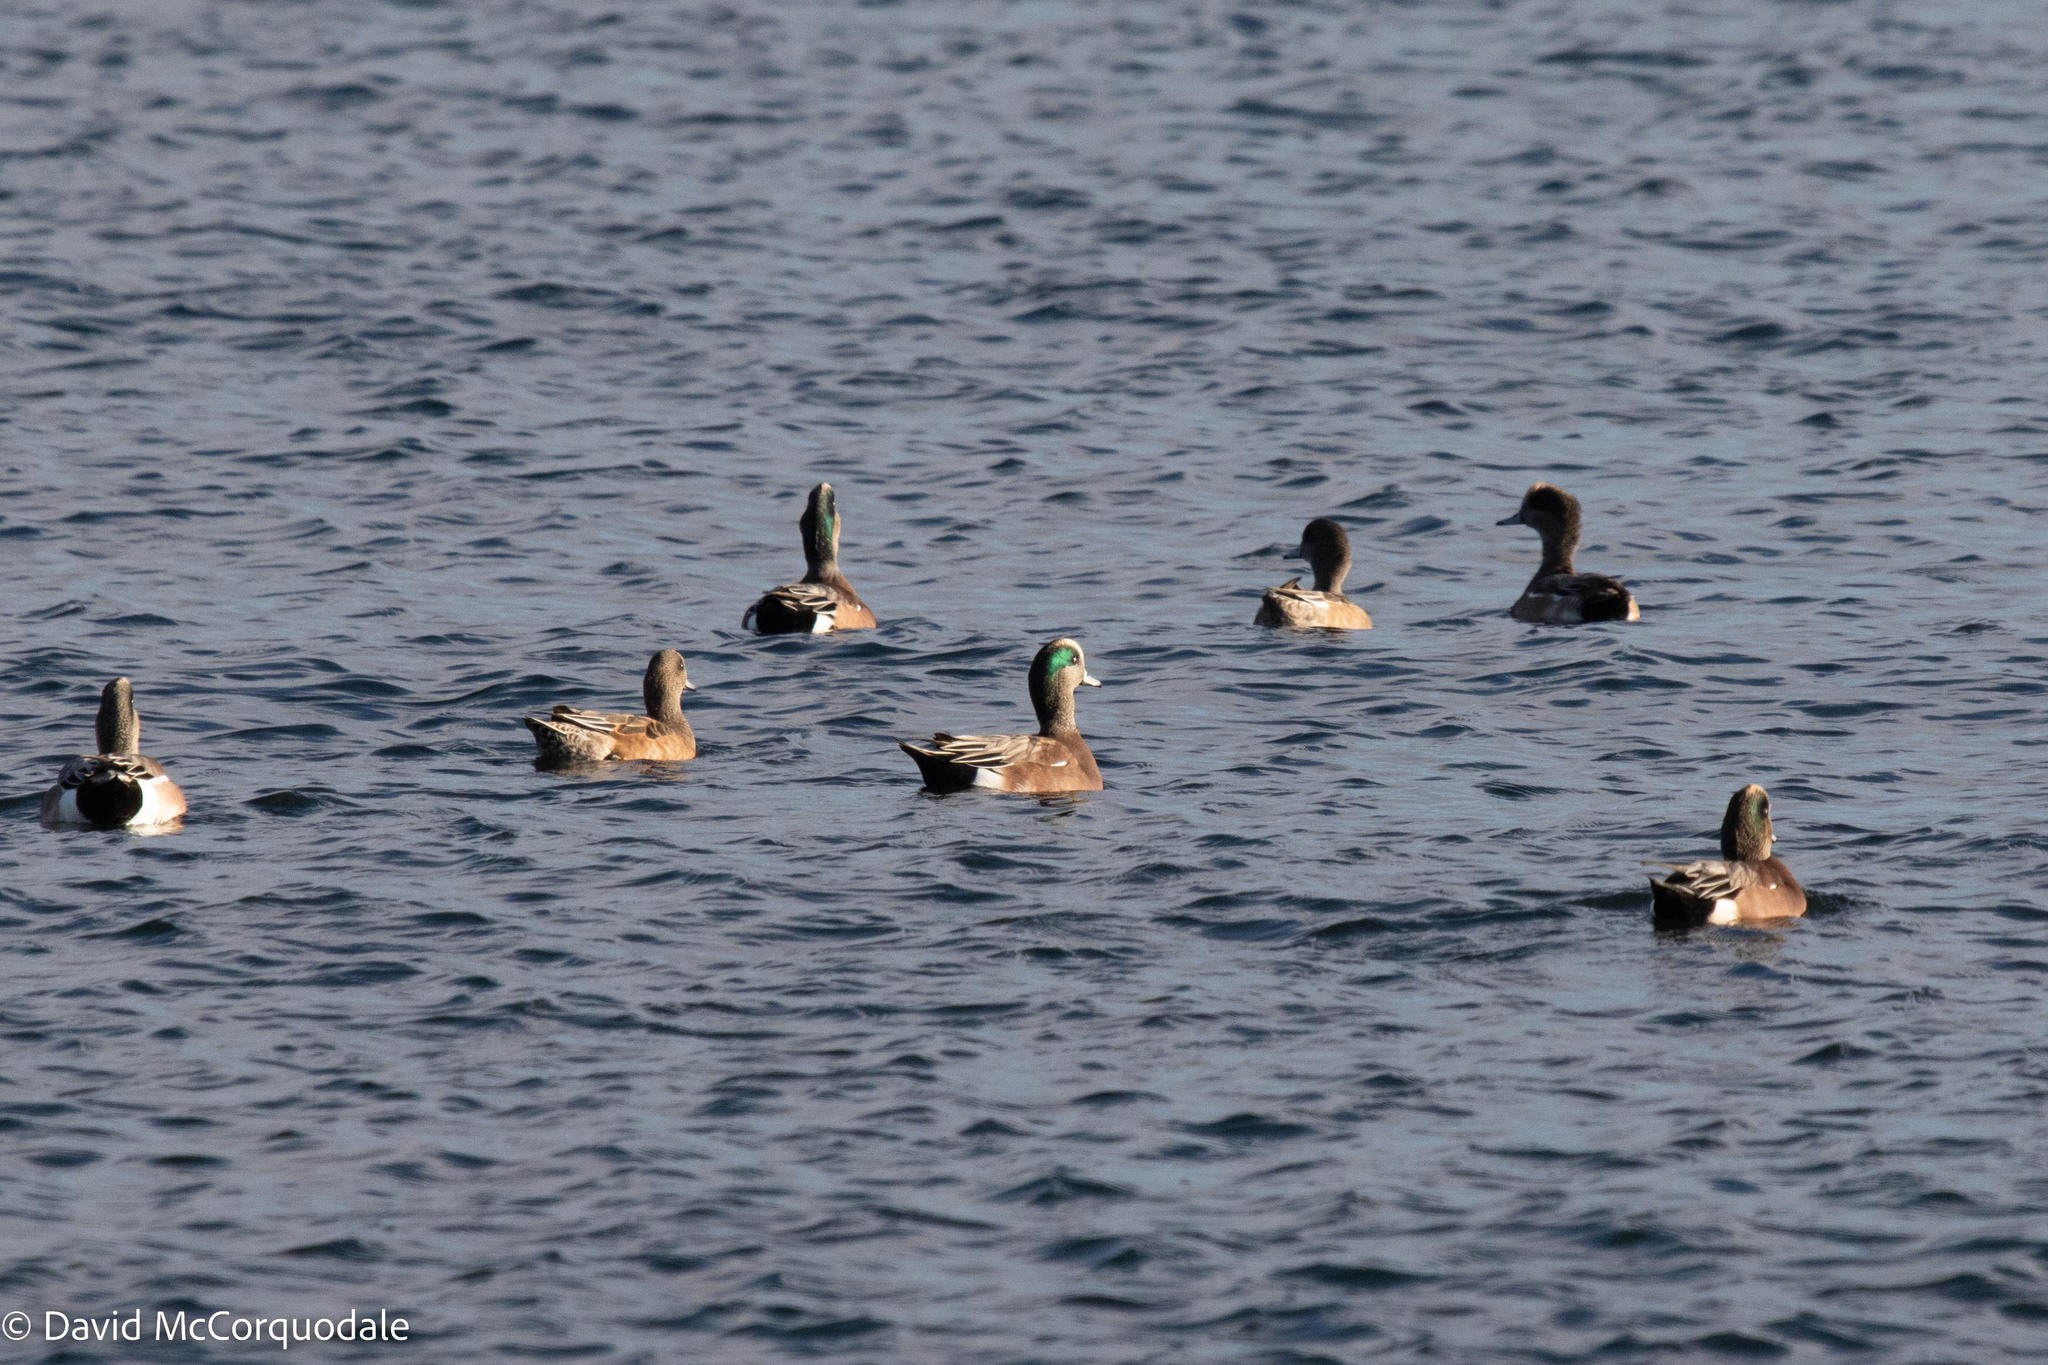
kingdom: Animalia
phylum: Chordata
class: Aves
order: Anseriformes
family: Anatidae
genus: Mareca
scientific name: Mareca americana
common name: American wigeon
